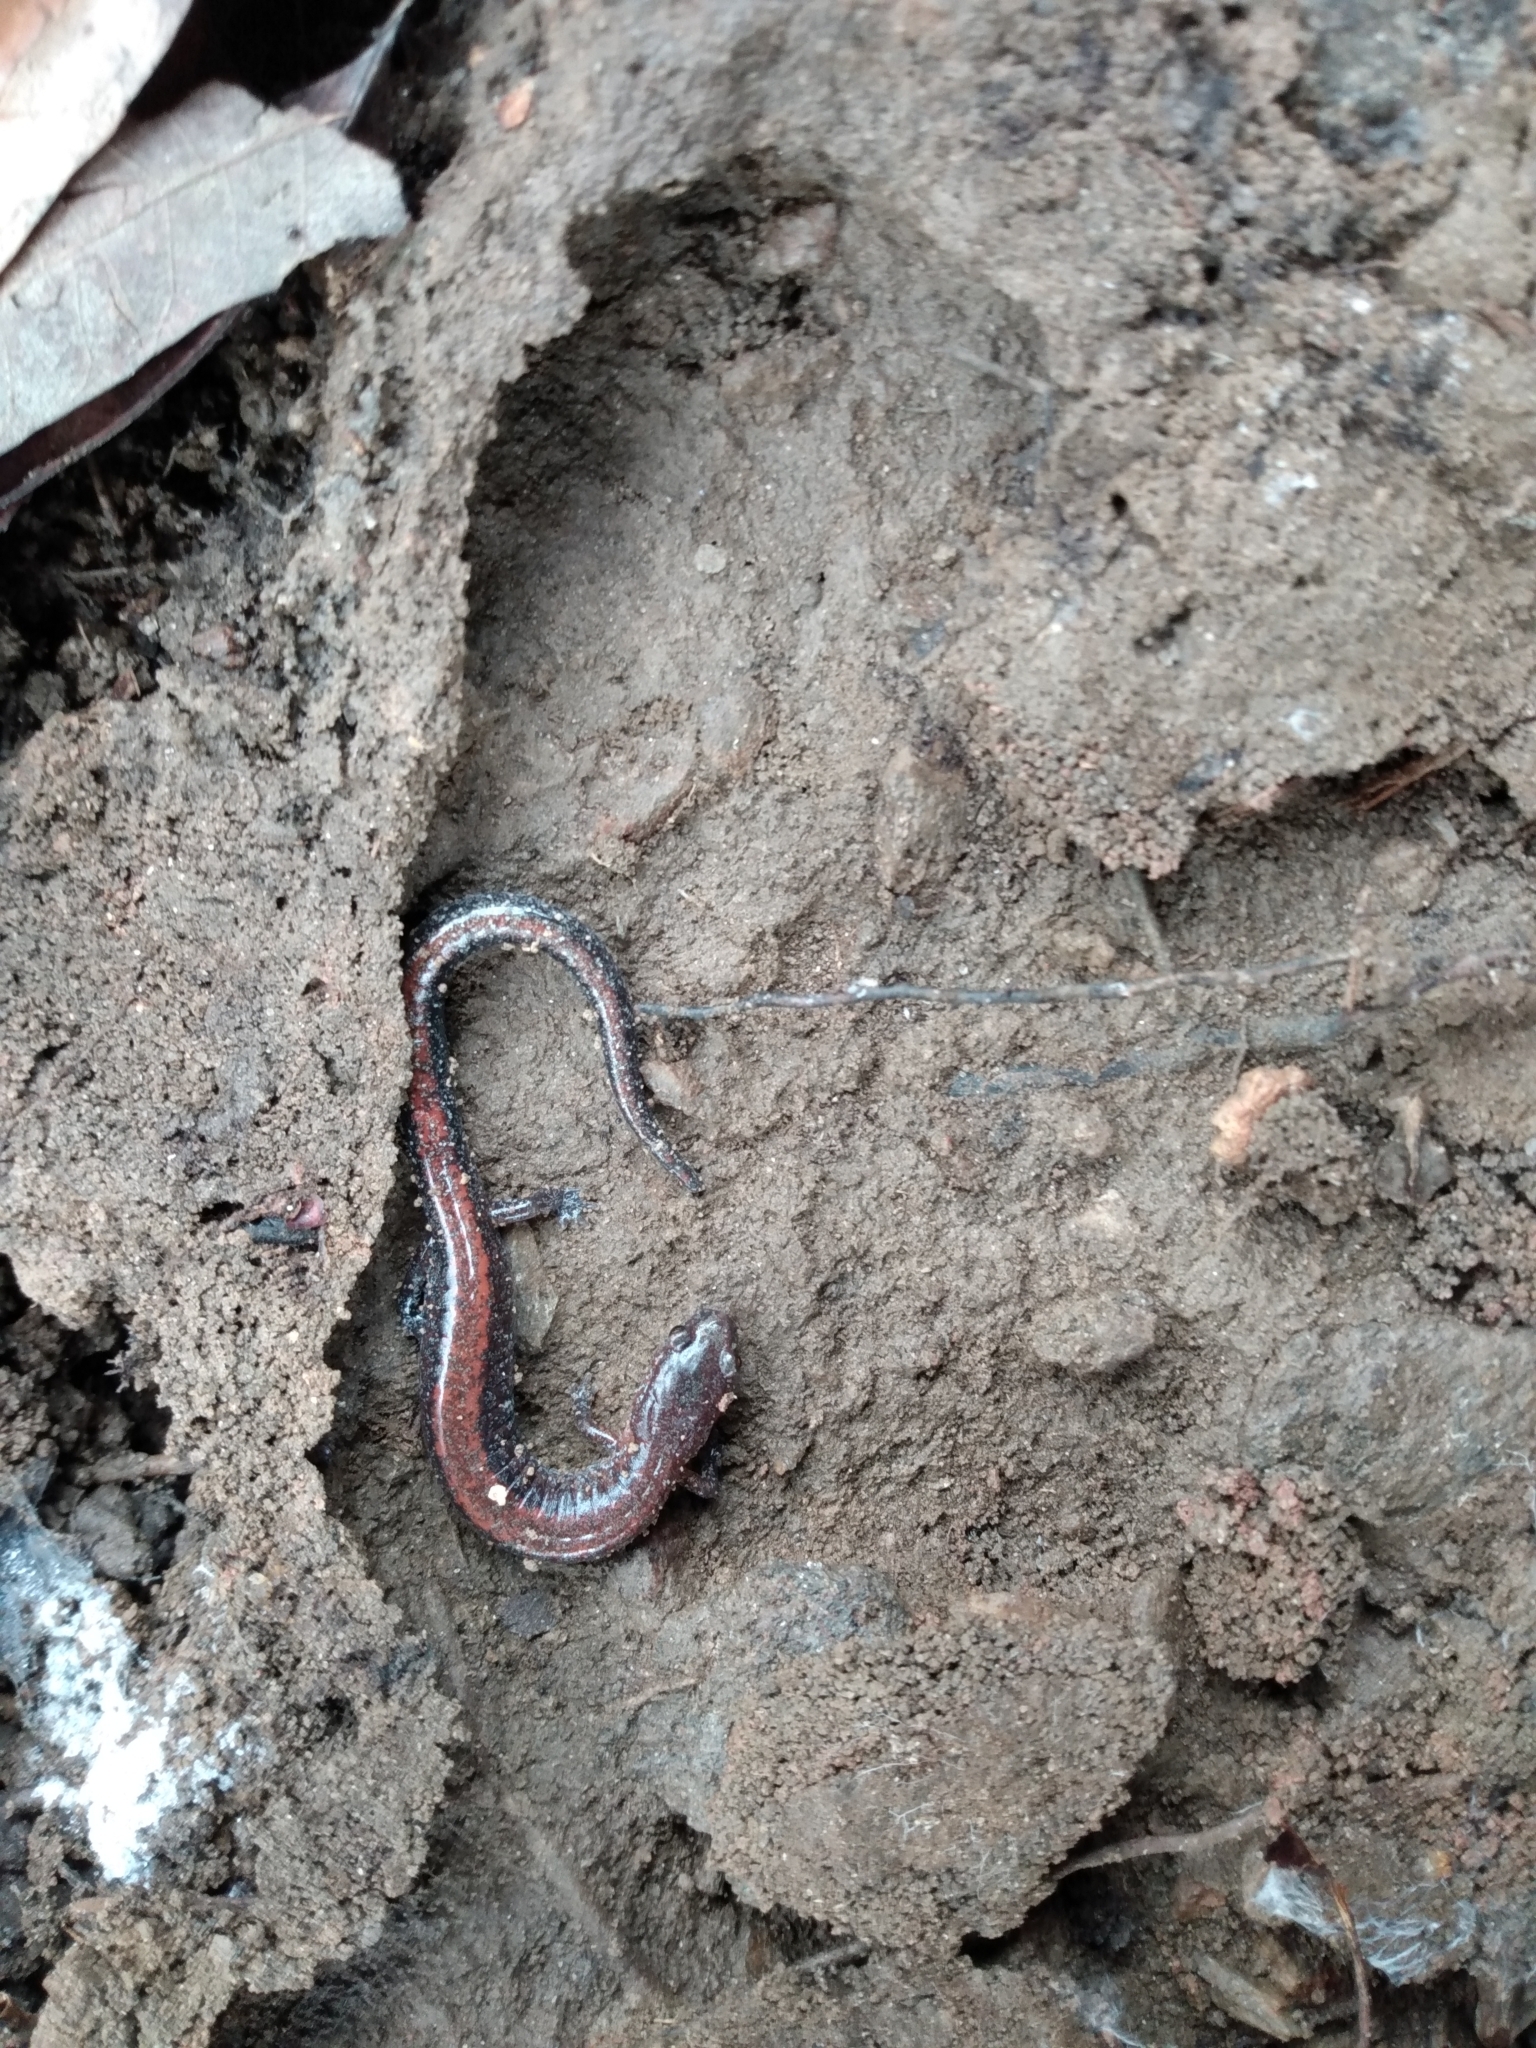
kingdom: Animalia
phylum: Chordata
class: Amphibia
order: Caudata
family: Plethodontidae
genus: Plethodon
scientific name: Plethodon serratus
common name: Southern red-backed salamander
